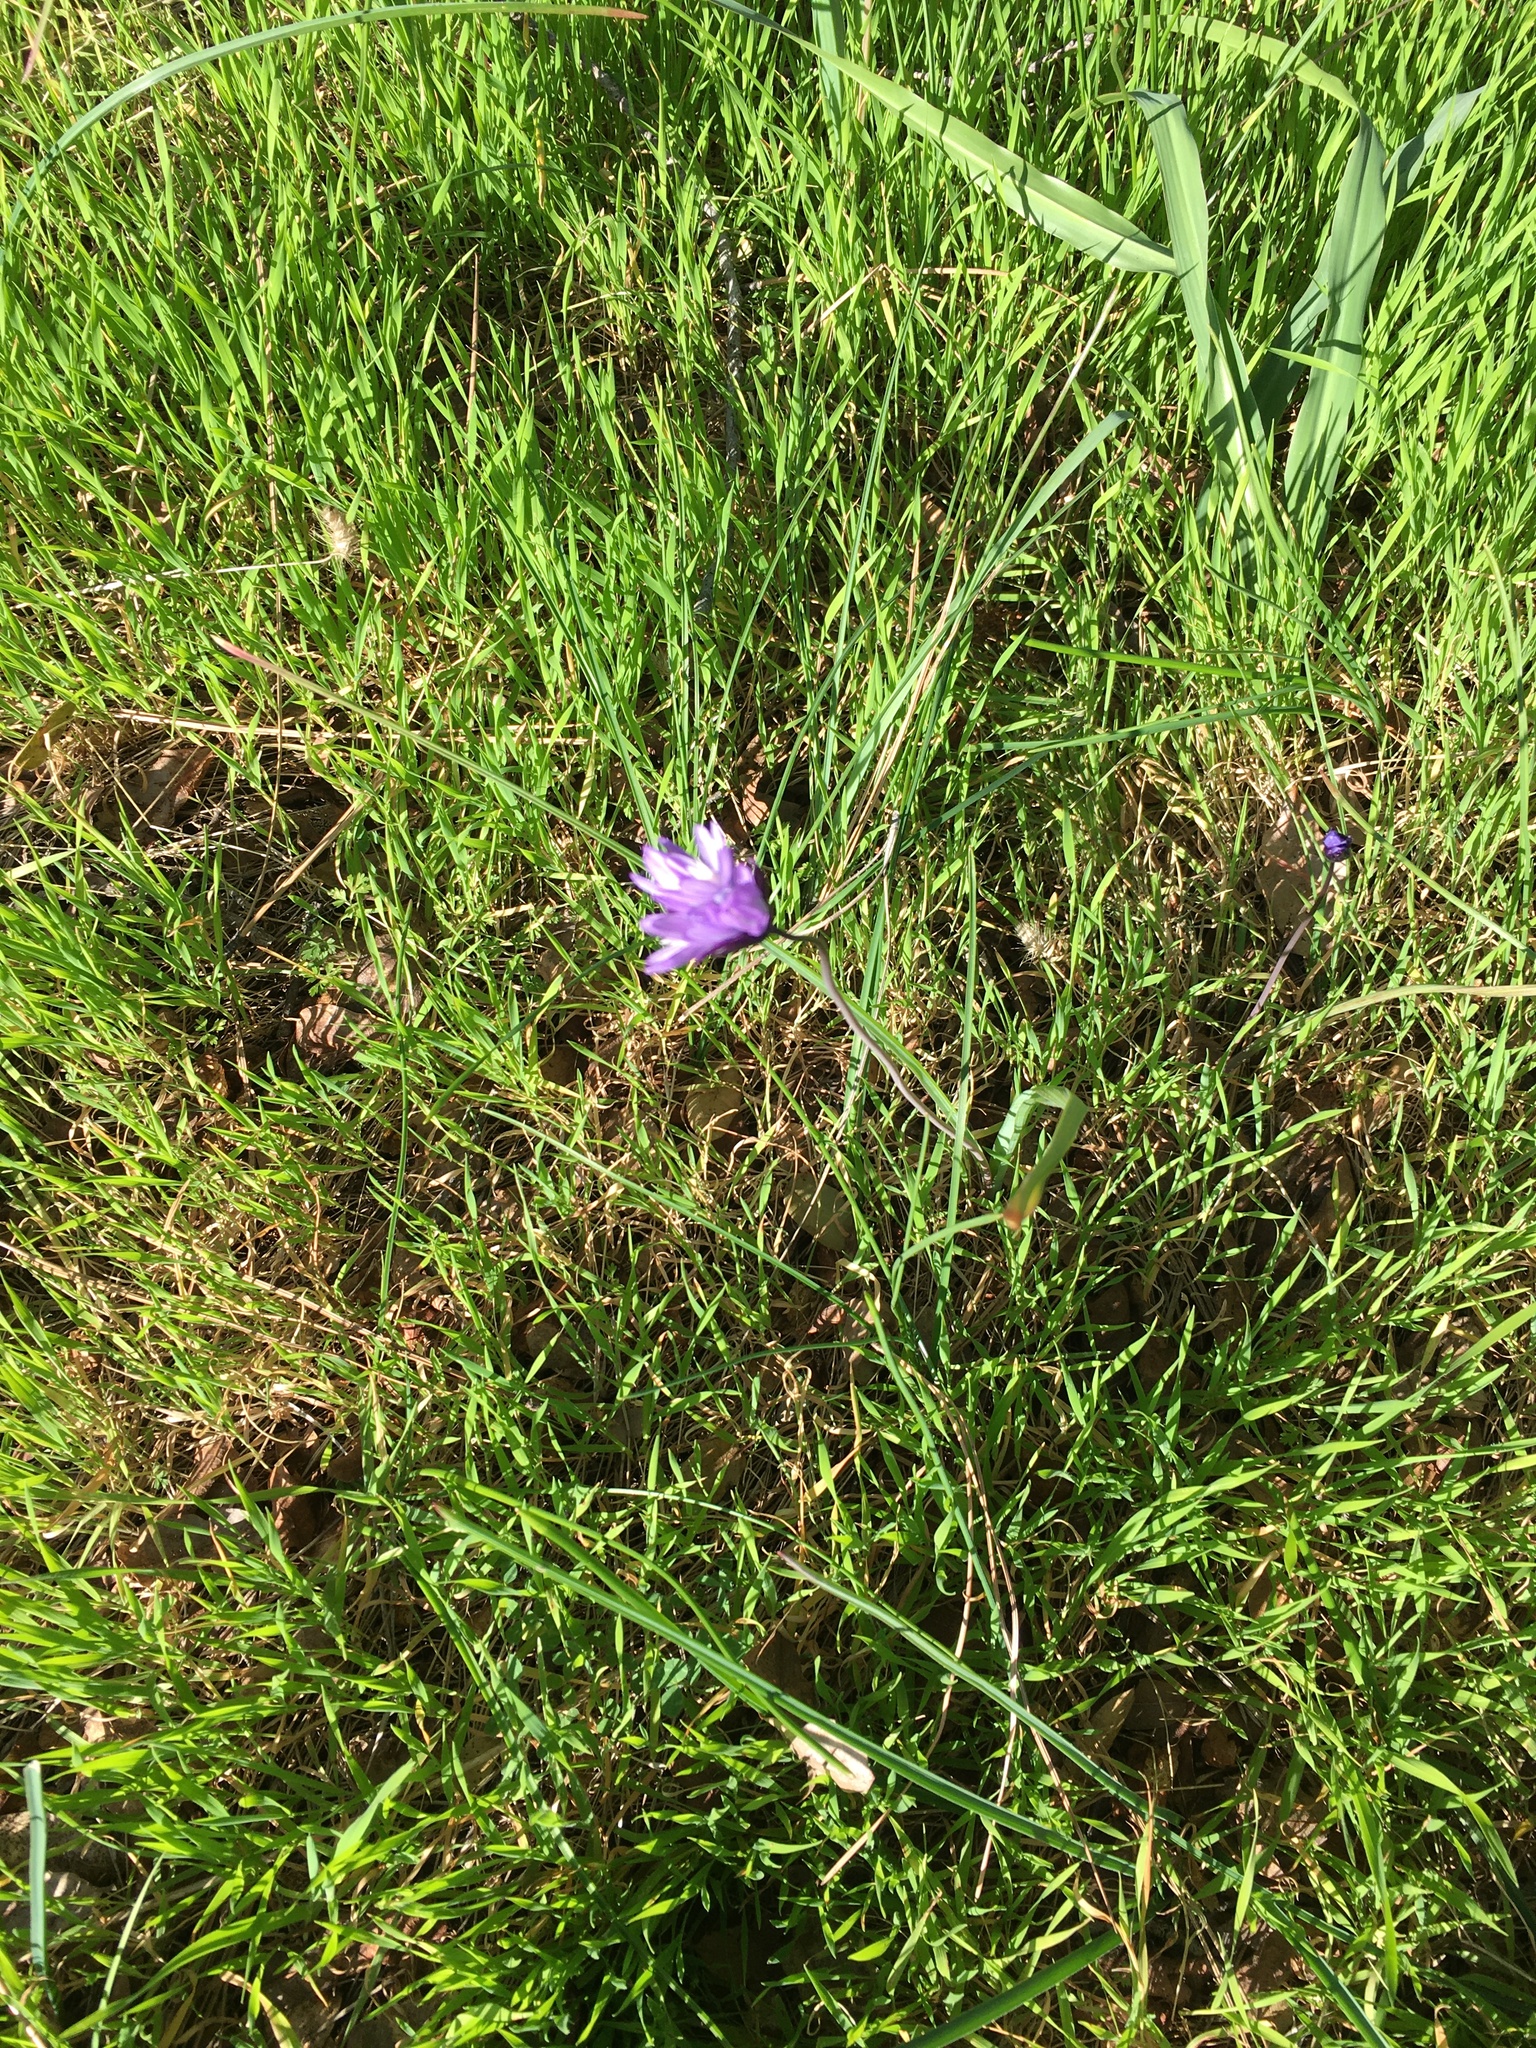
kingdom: Plantae
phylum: Tracheophyta
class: Liliopsida
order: Asparagales
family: Asparagaceae
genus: Dipterostemon
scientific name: Dipterostemon capitatus
